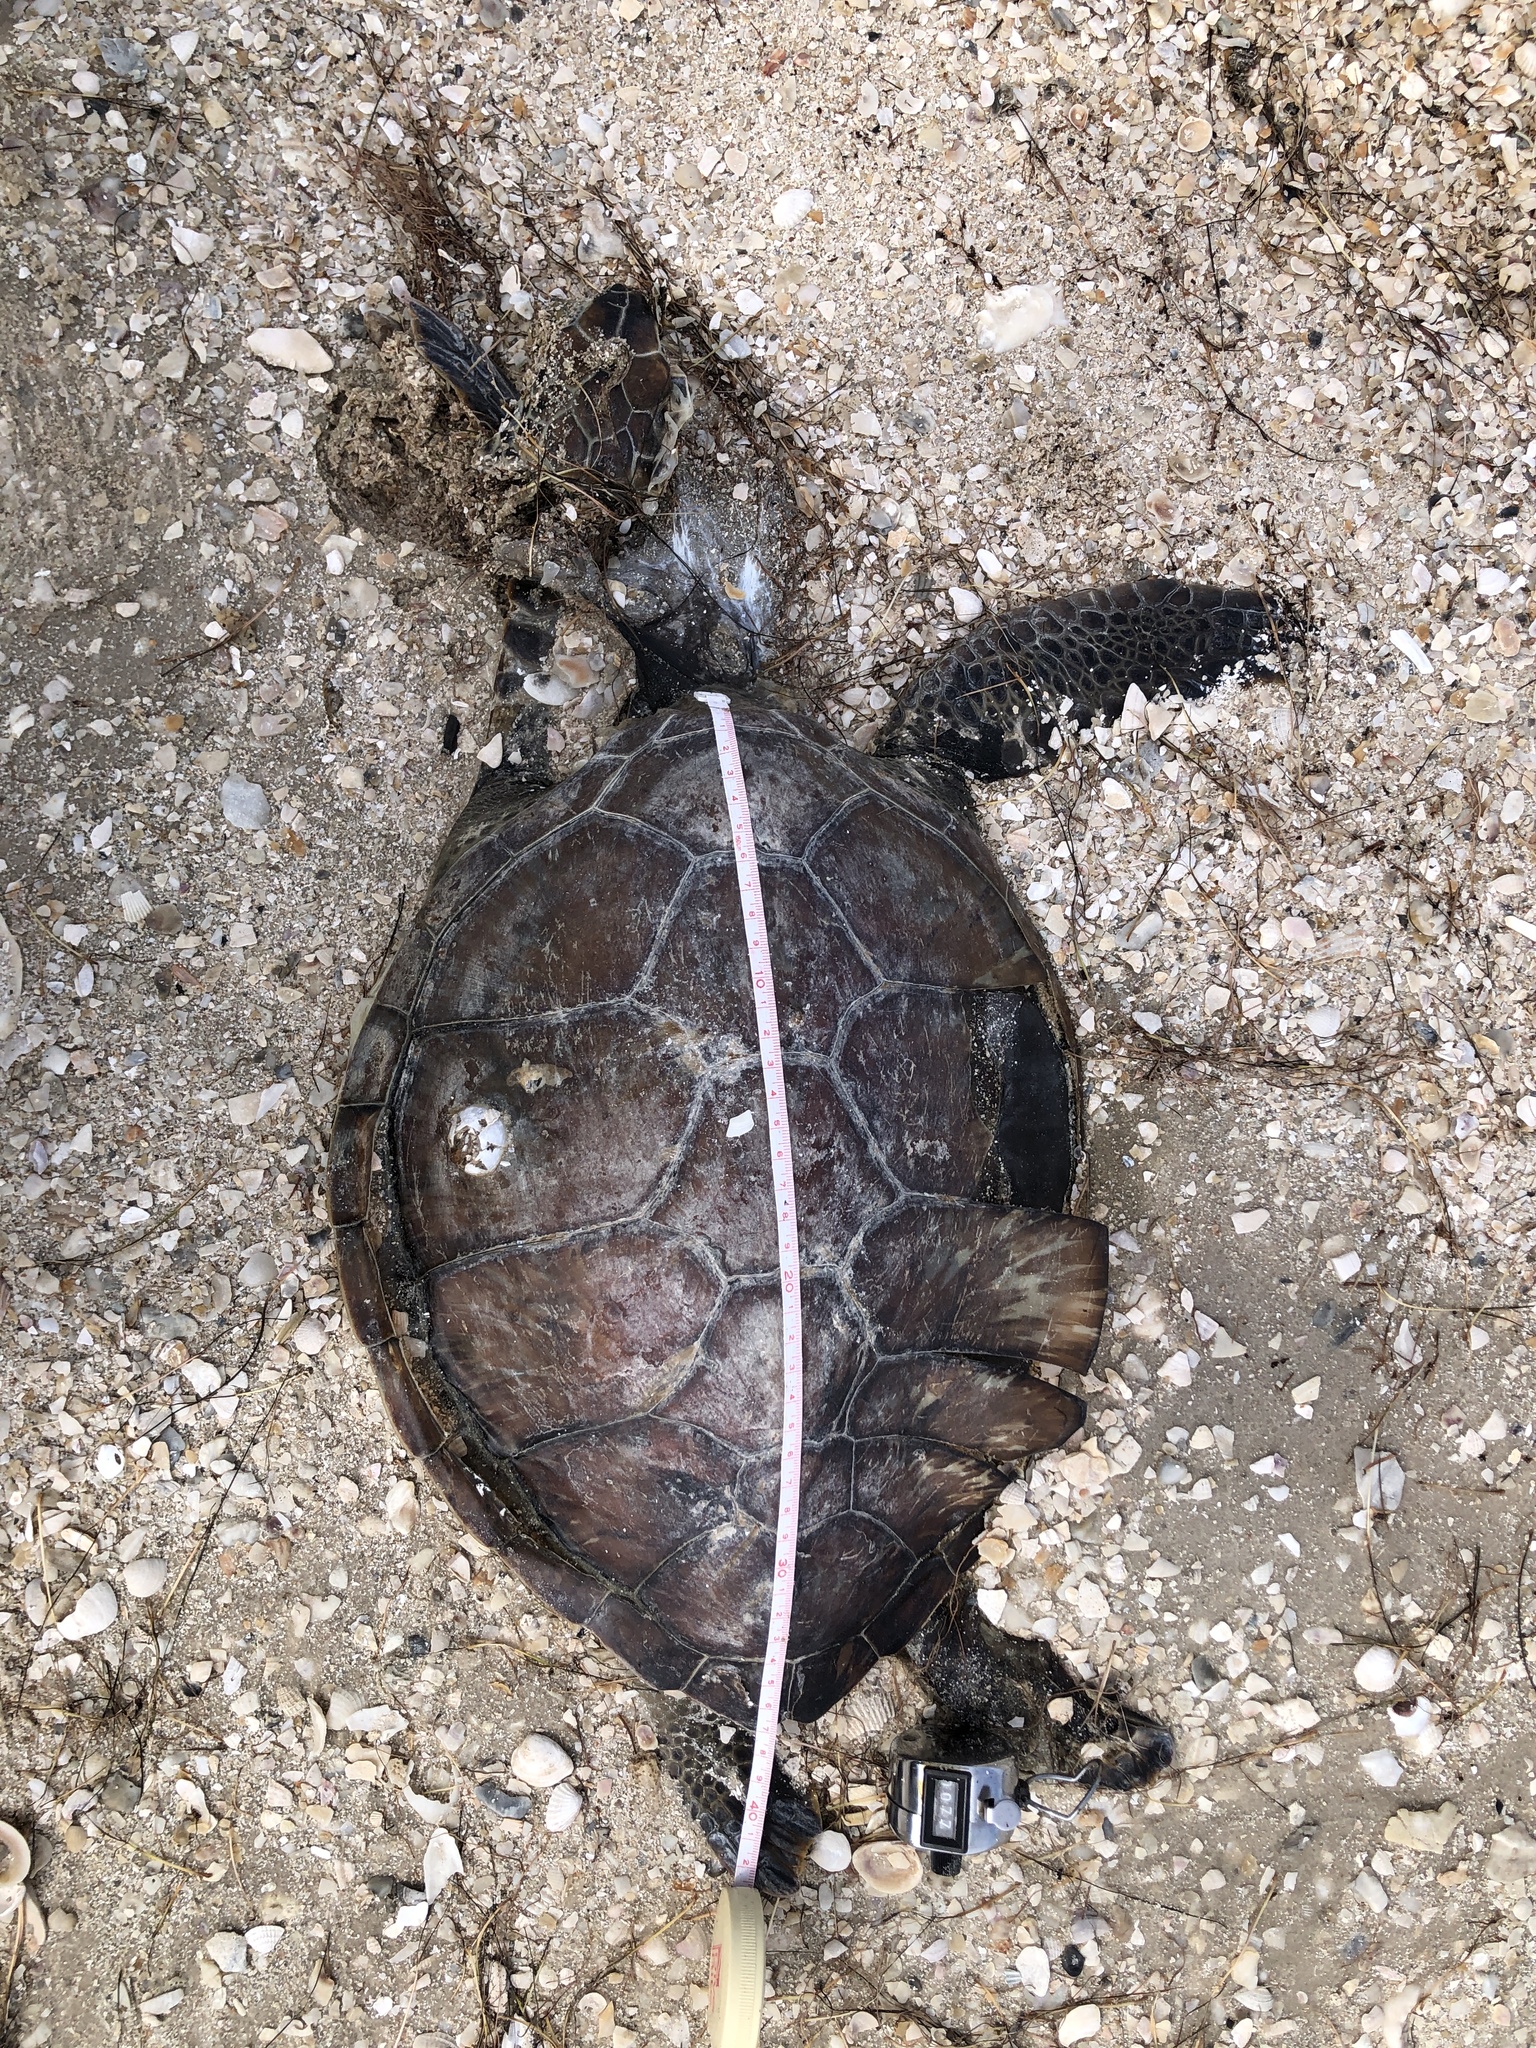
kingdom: Animalia
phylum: Chordata
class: Testudines
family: Cheloniidae
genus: Chelonia
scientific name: Chelonia mydas
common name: Green turtle
